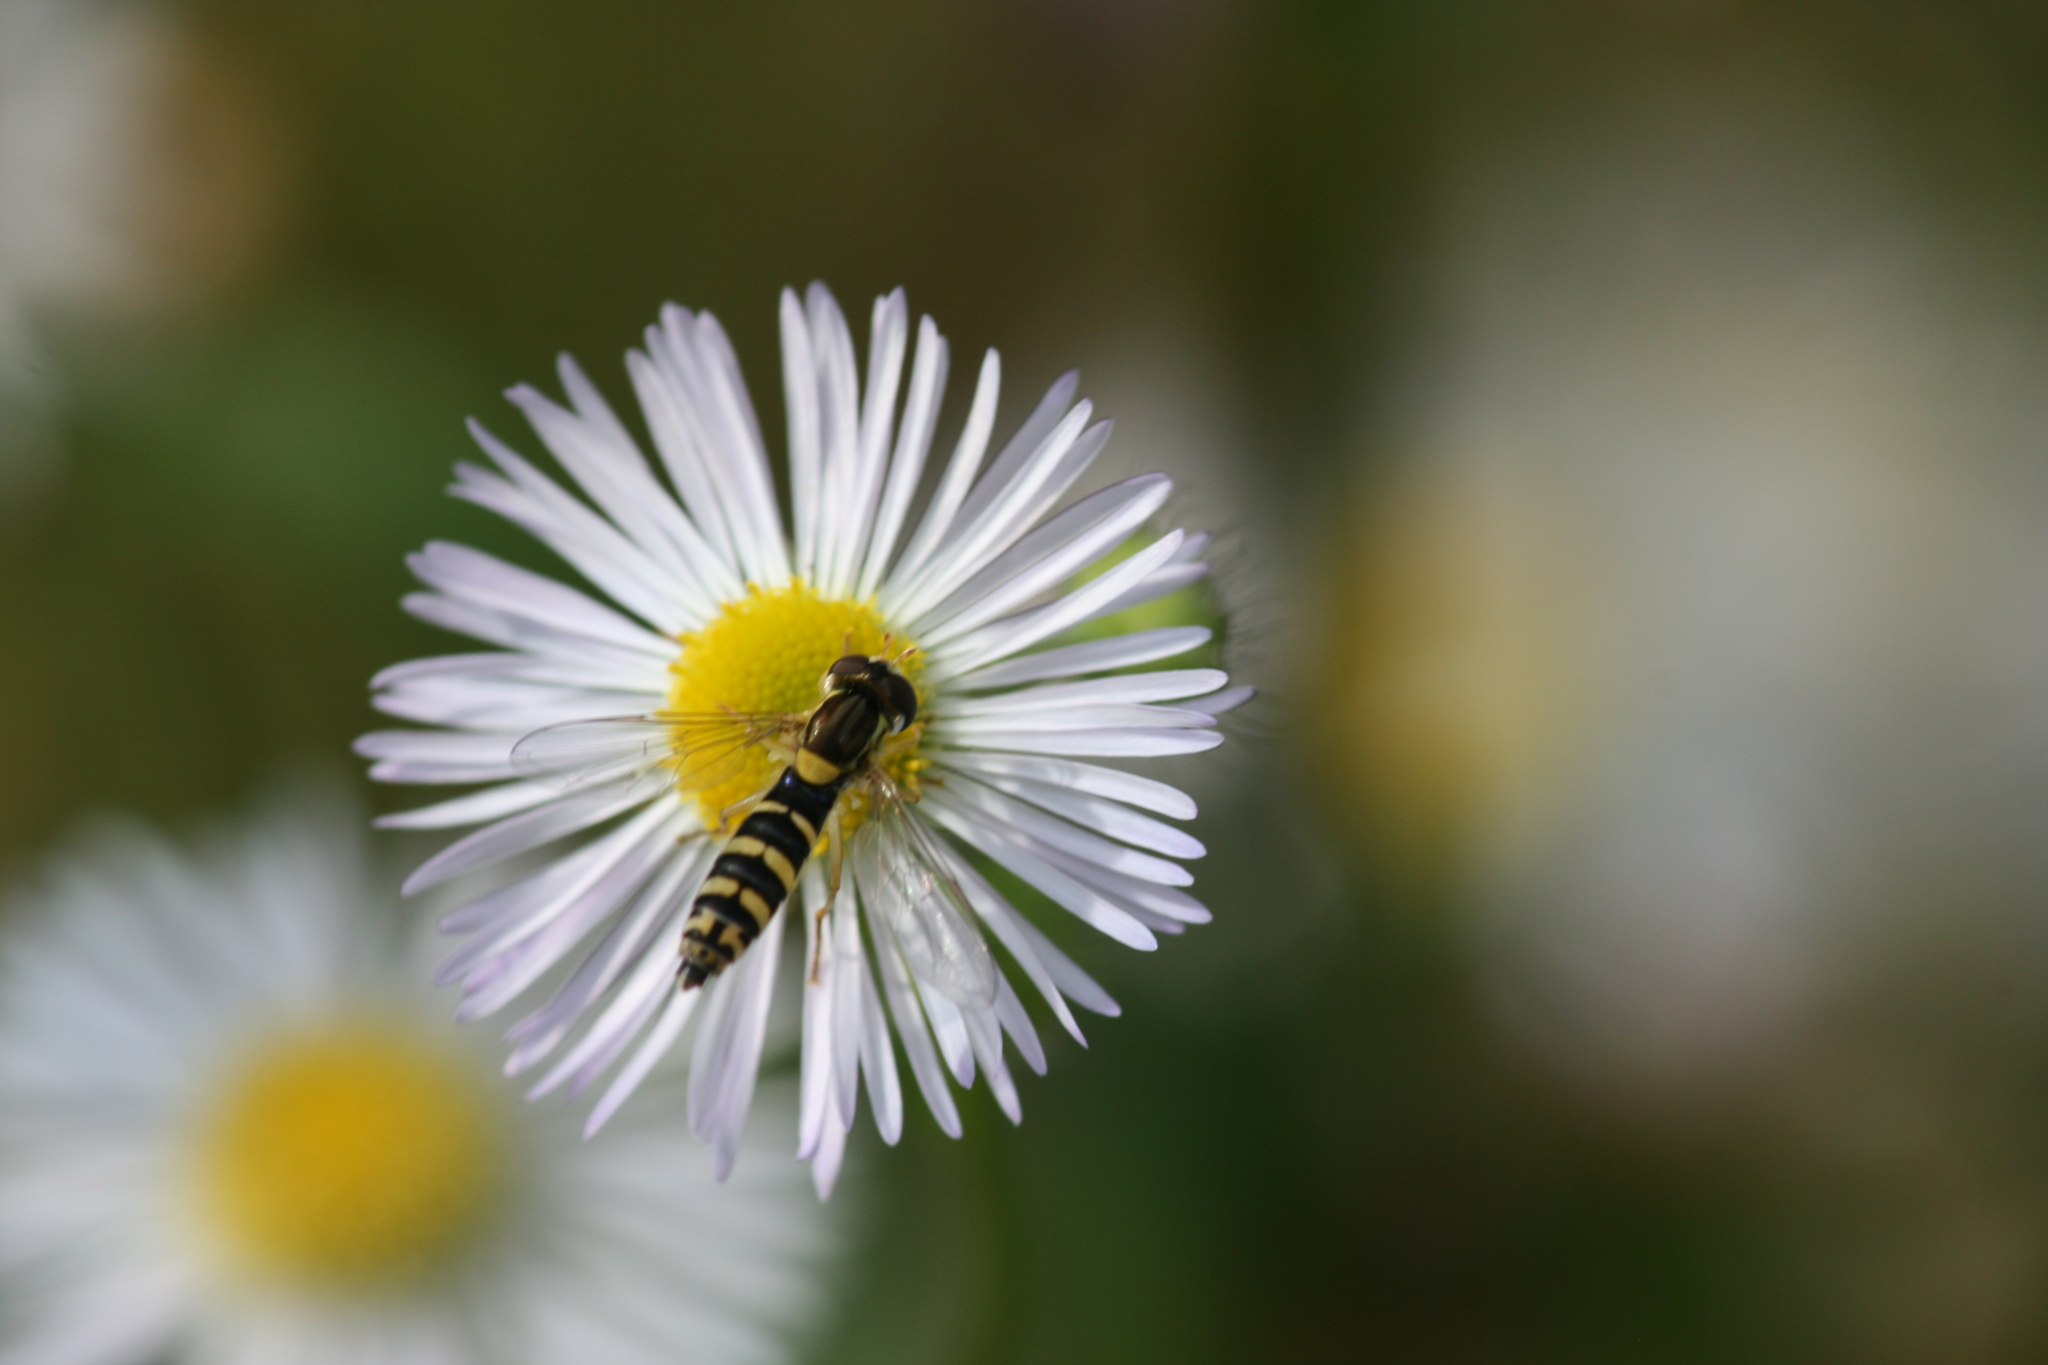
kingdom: Animalia
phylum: Arthropoda
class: Insecta
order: Diptera
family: Syrphidae
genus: Sphaerophoria
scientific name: Sphaerophoria
